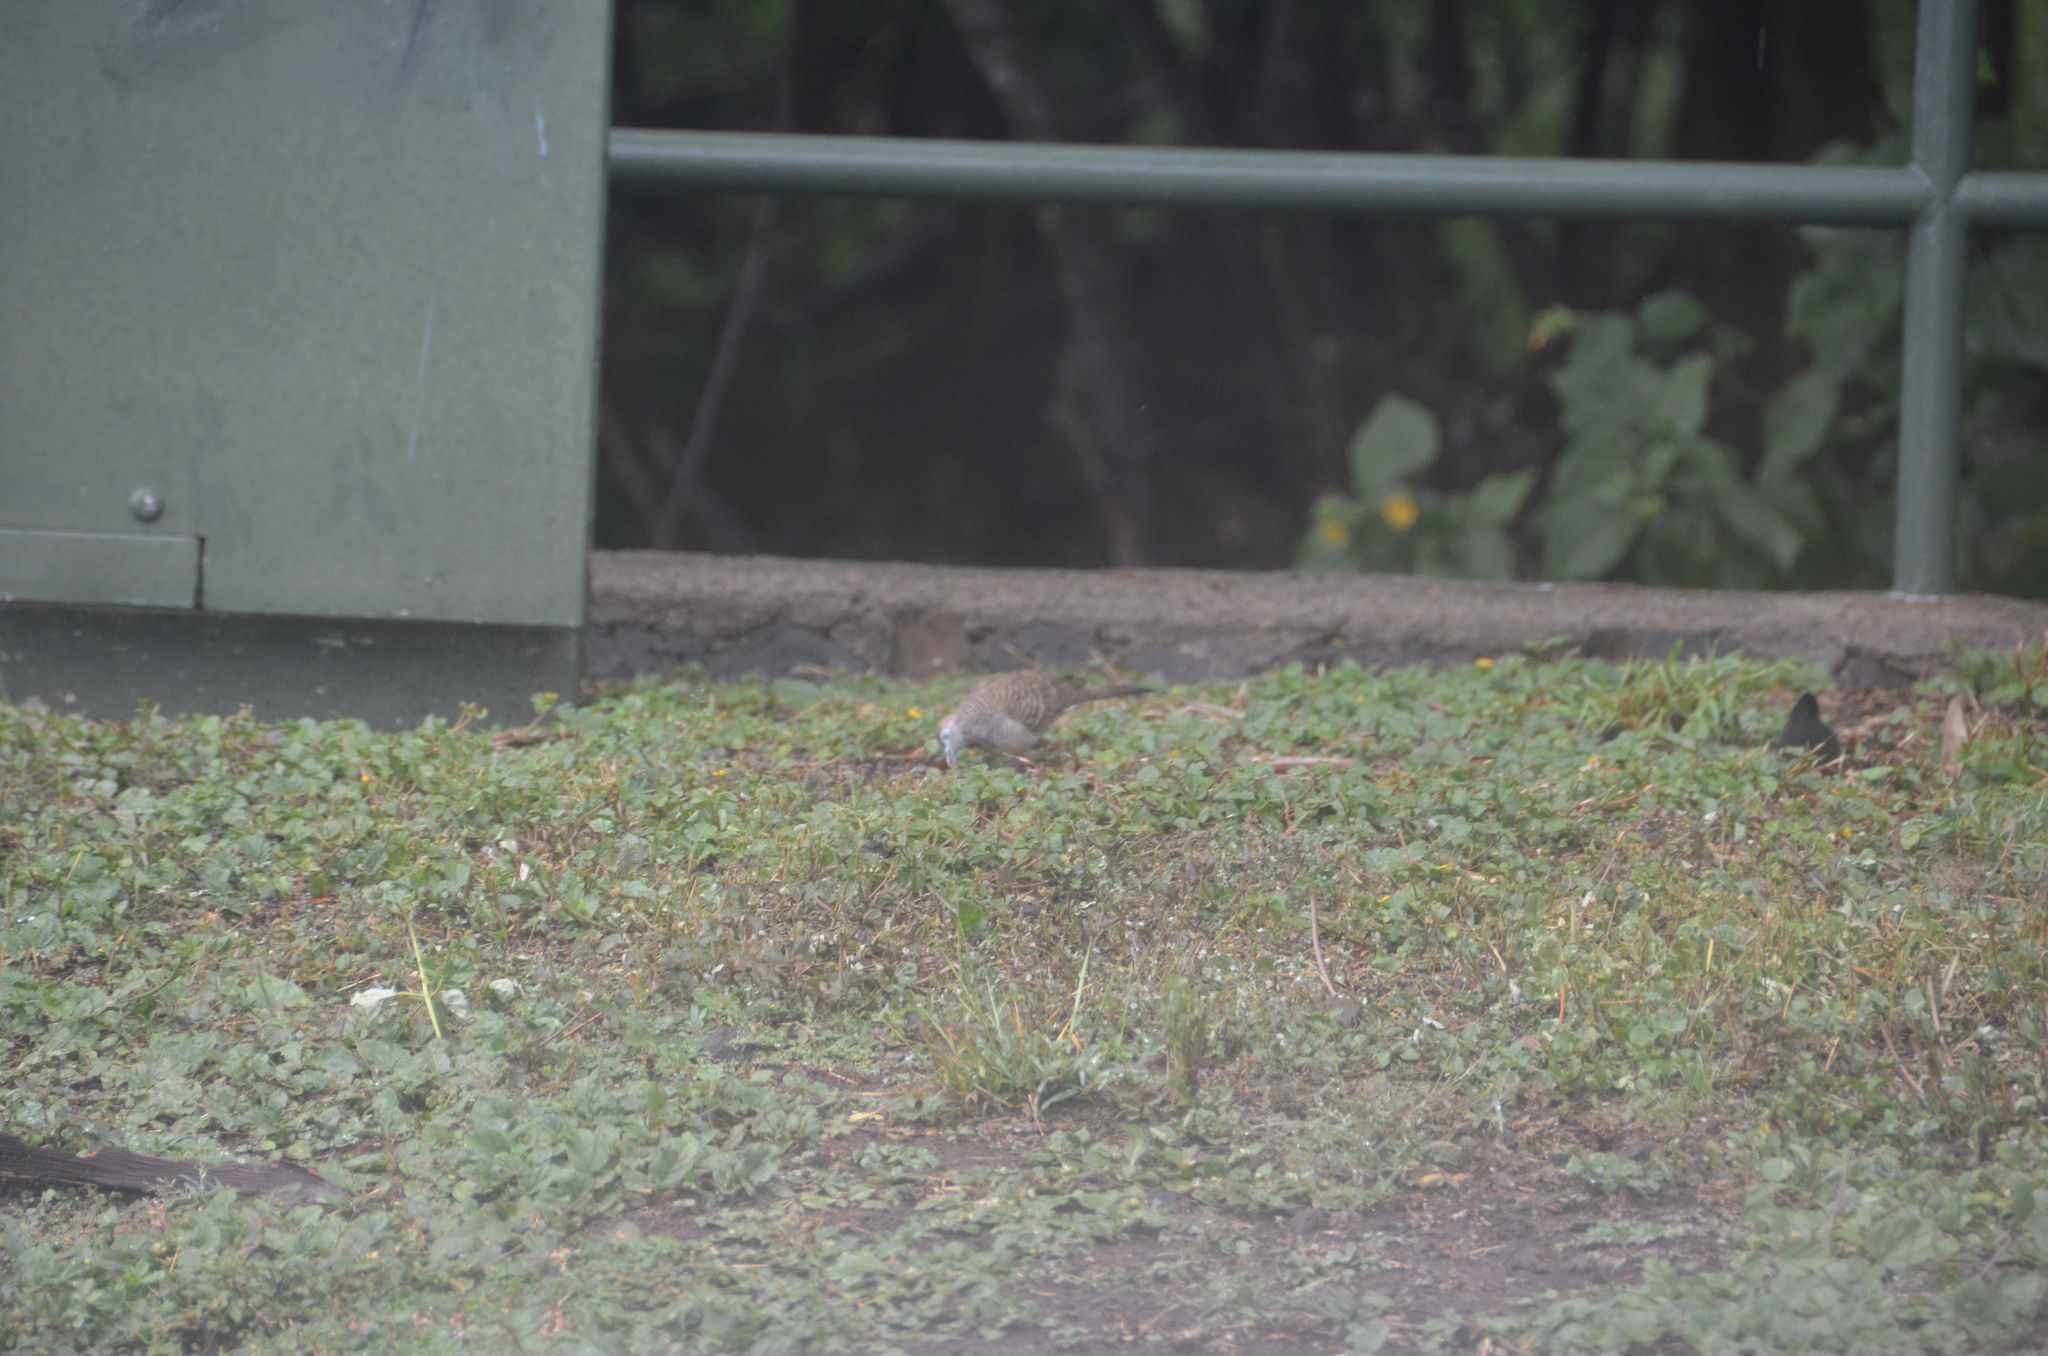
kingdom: Animalia
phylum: Chordata
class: Aves
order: Columbiformes
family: Columbidae
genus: Geopelia
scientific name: Geopelia striata
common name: Zebra dove
